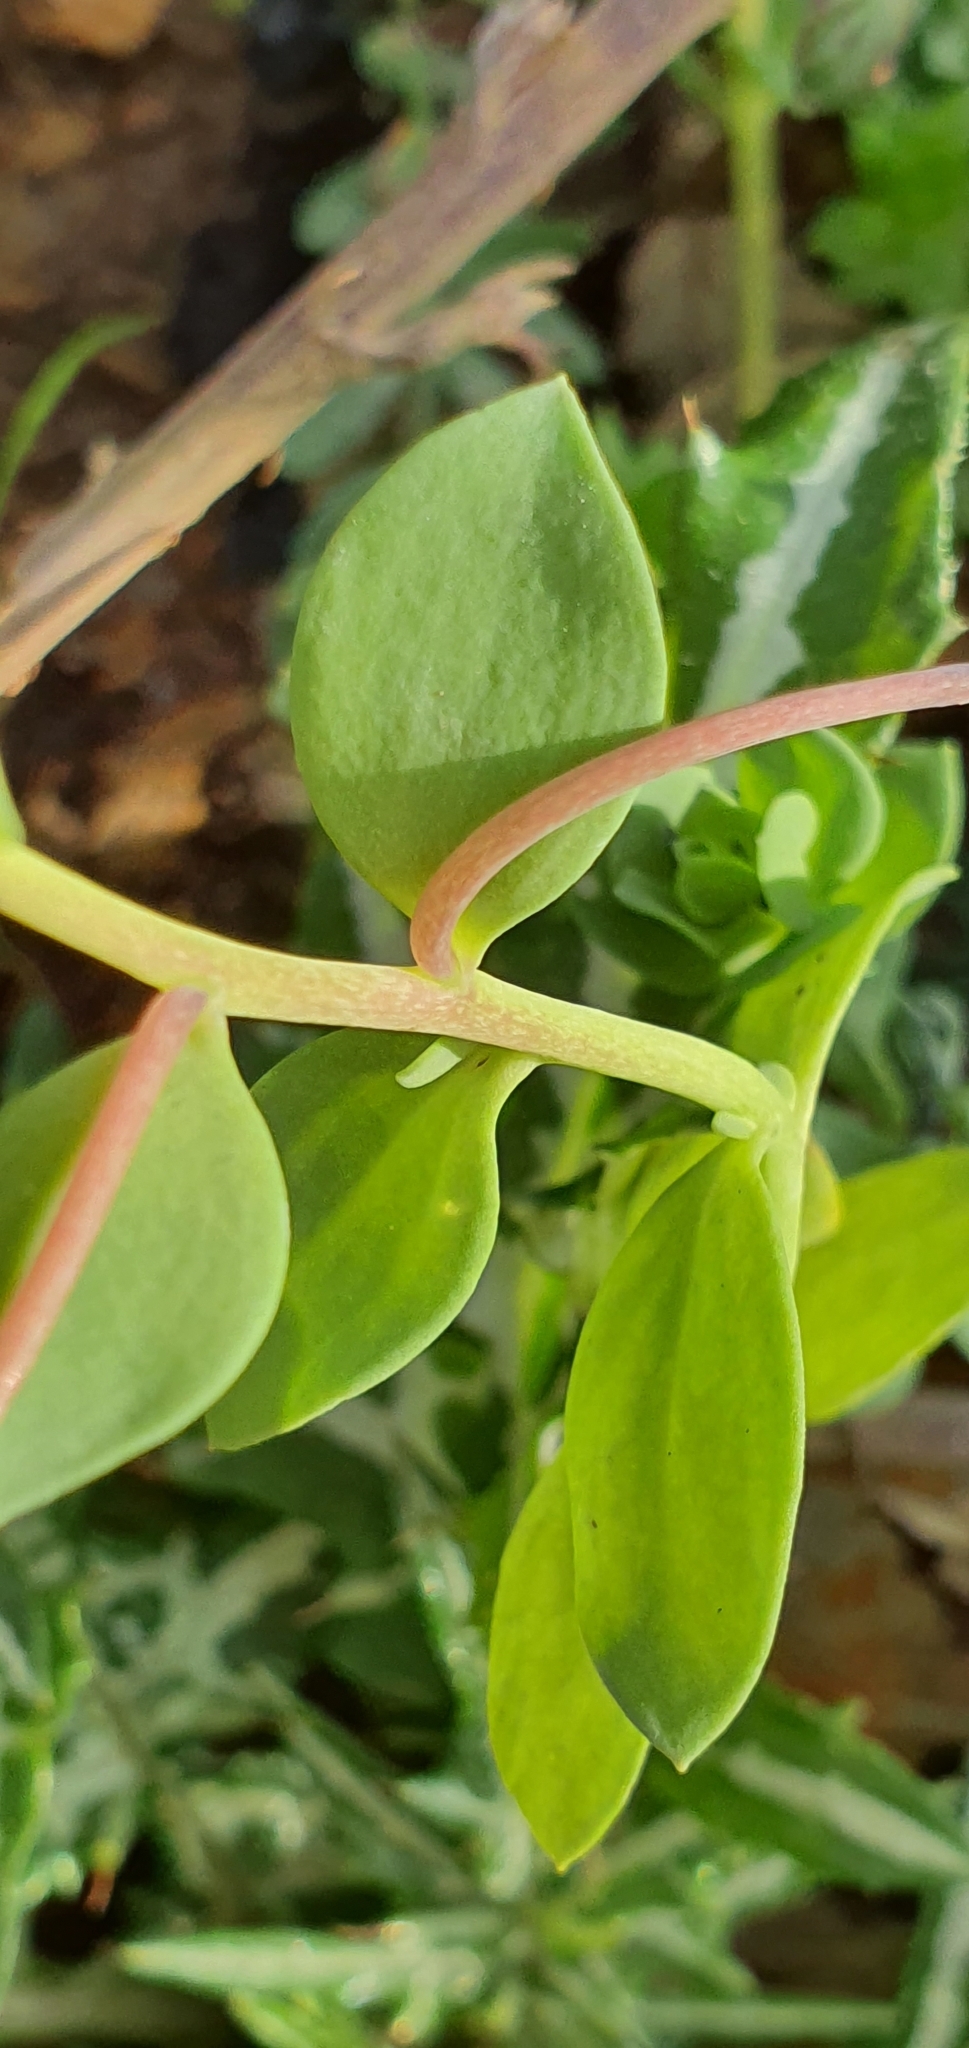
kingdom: Plantae
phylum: Tracheophyta
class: Magnoliopsida
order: Lamiales
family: Plantaginaceae
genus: Linaria
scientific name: Linaria reflexa
